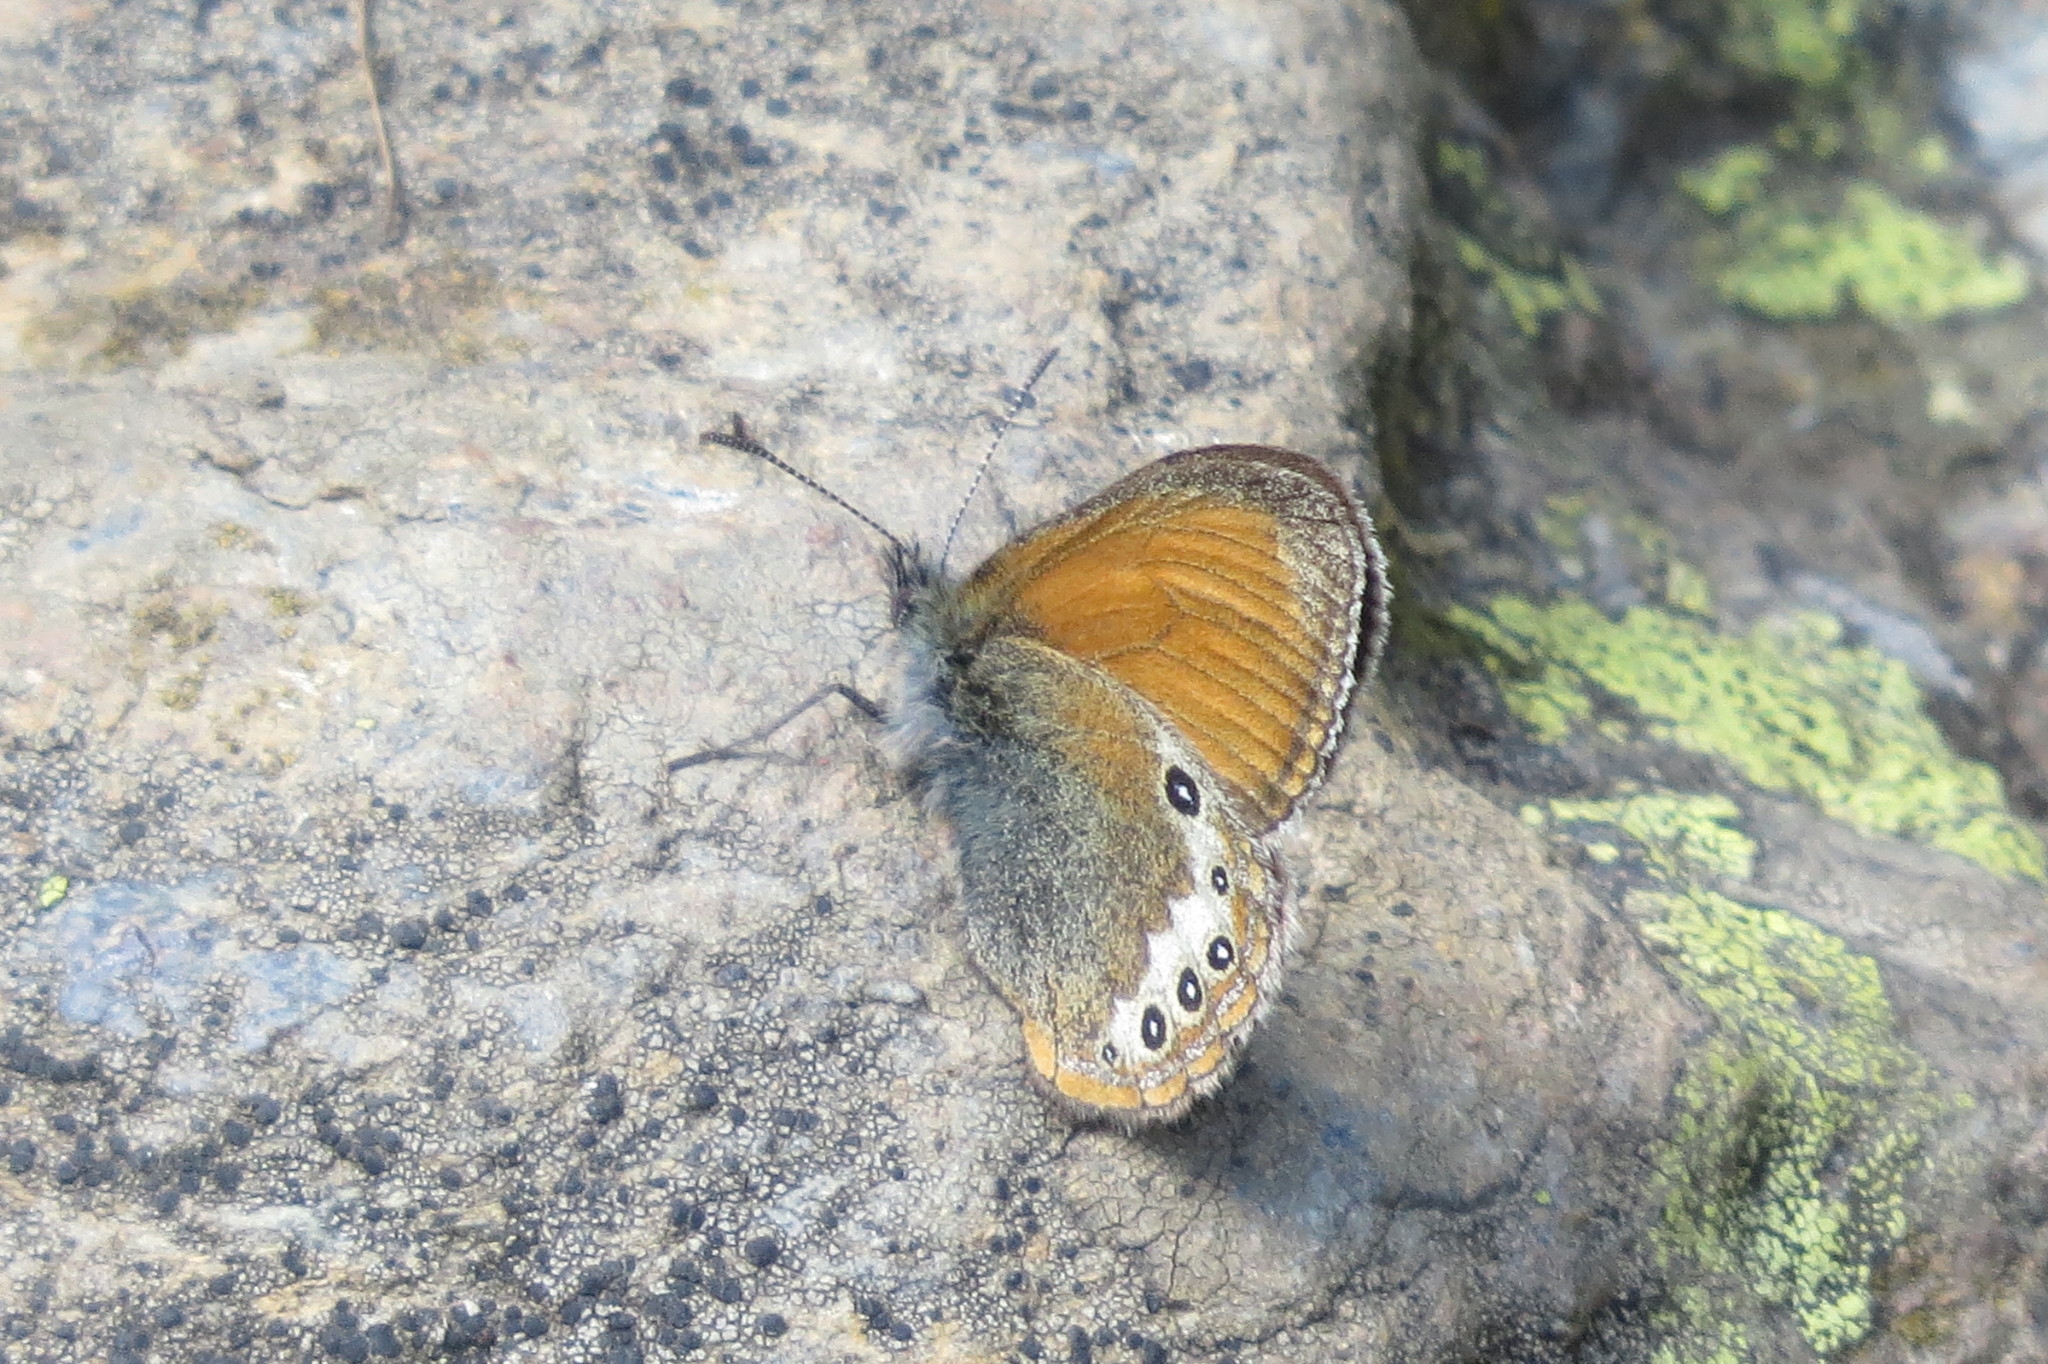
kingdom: Animalia
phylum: Arthropoda
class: Insecta
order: Lepidoptera
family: Nymphalidae
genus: Coenonympha
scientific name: Coenonympha
